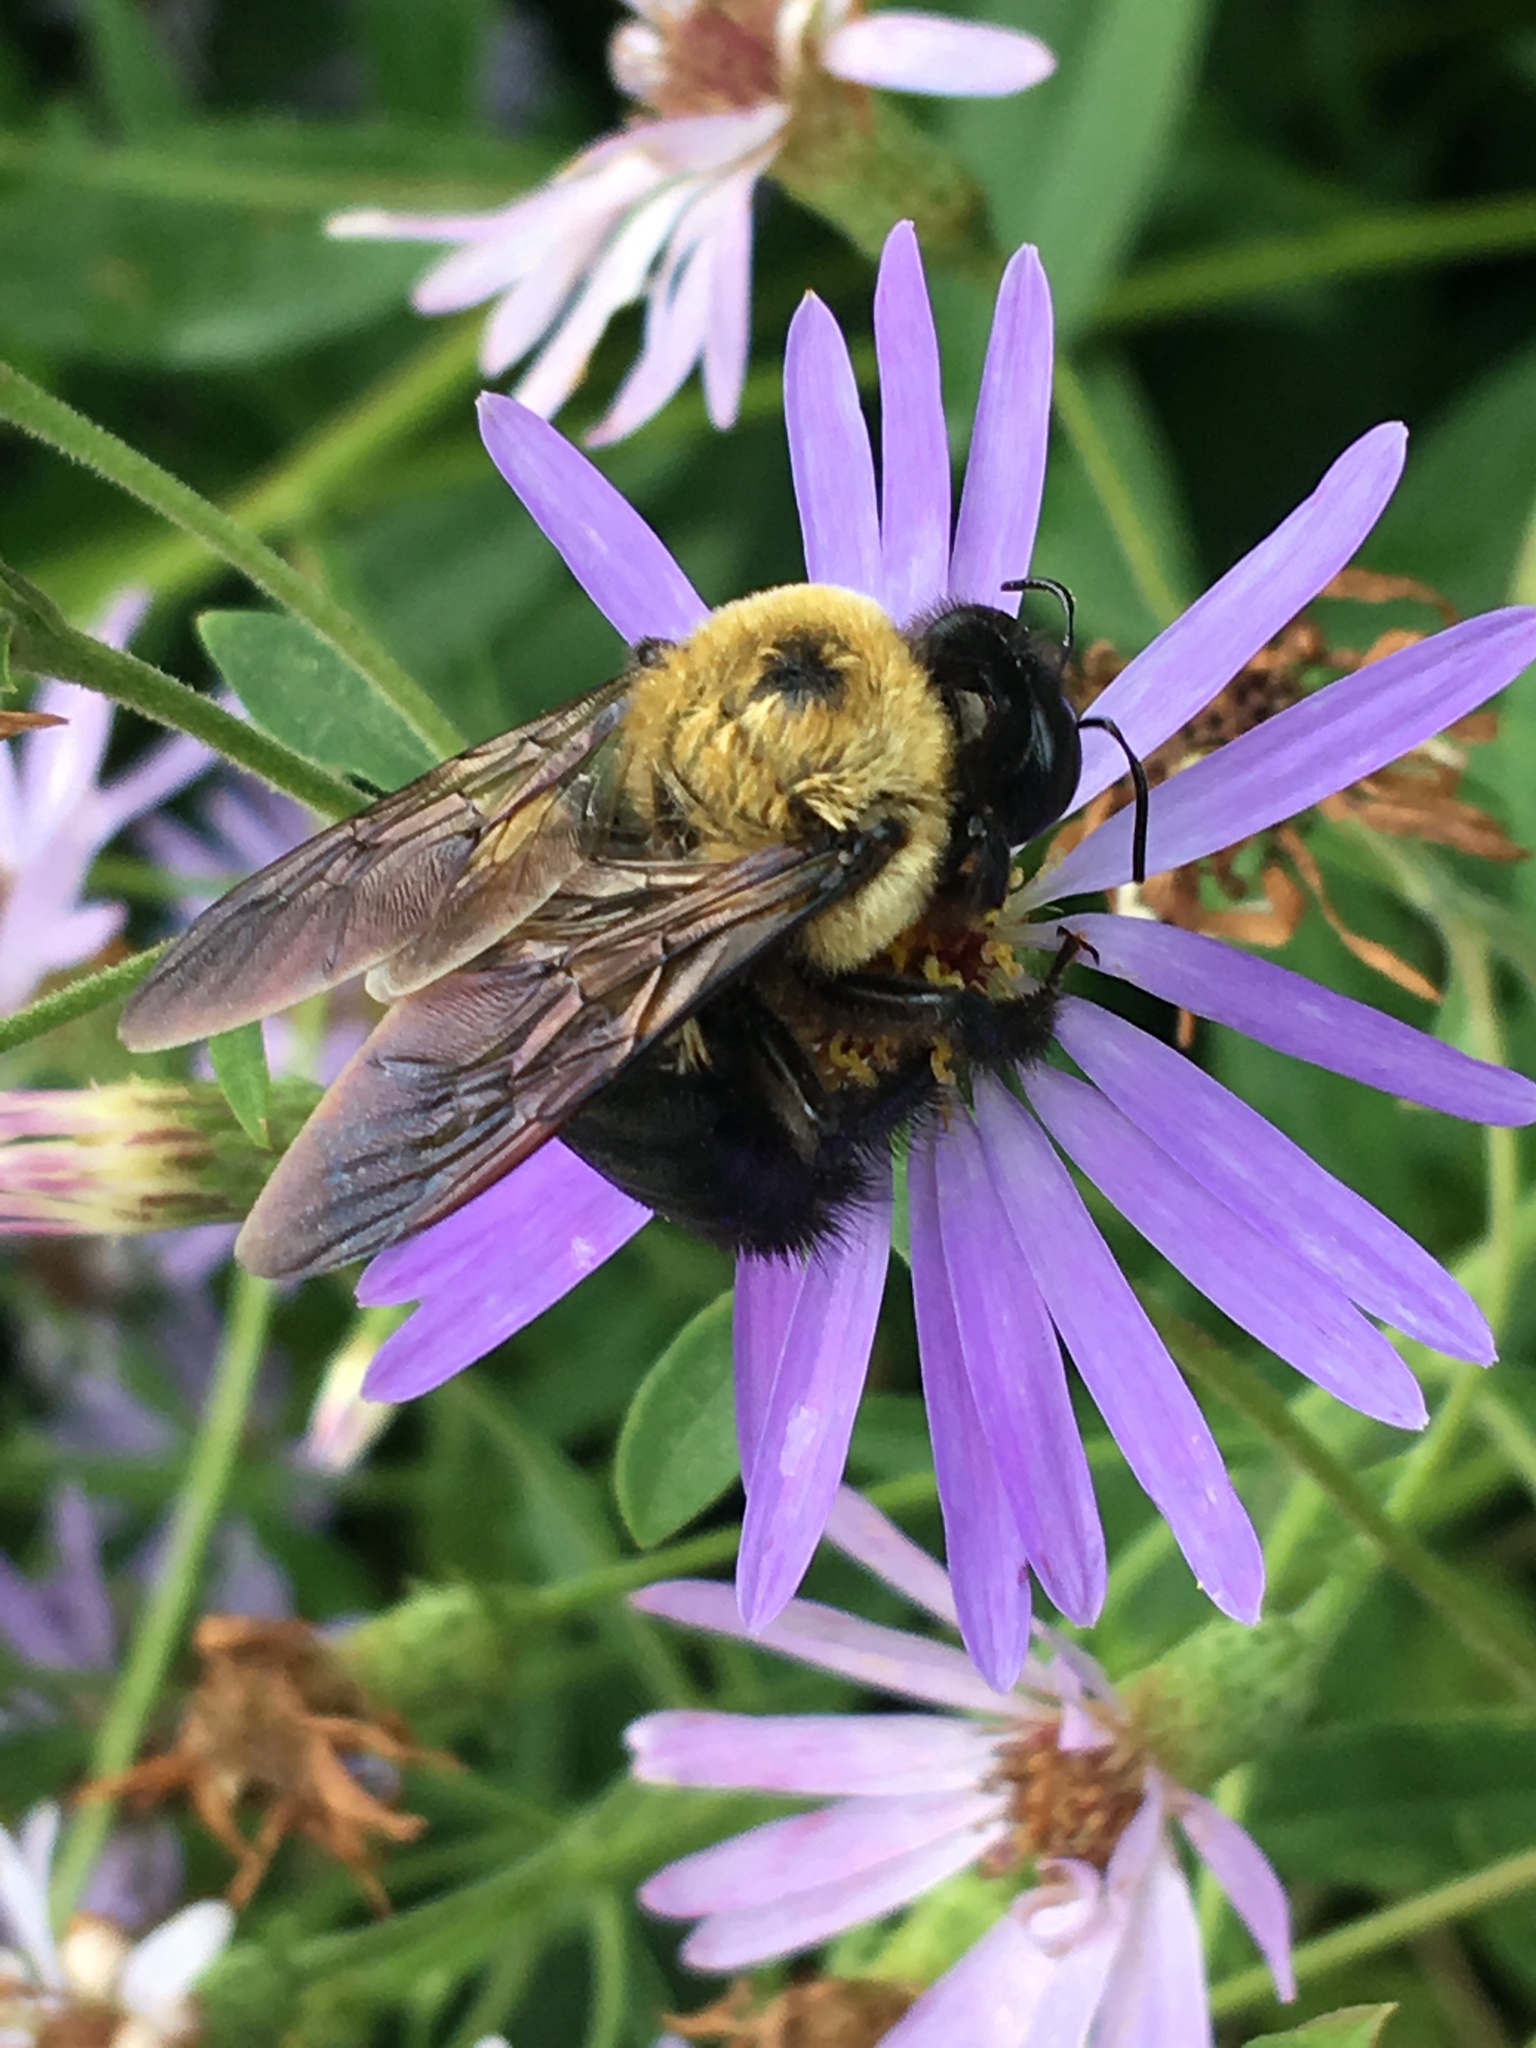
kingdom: Animalia
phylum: Arthropoda
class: Insecta
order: Hymenoptera
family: Apidae
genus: Xylocopa
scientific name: Xylocopa virginica
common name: Carpenter bee
